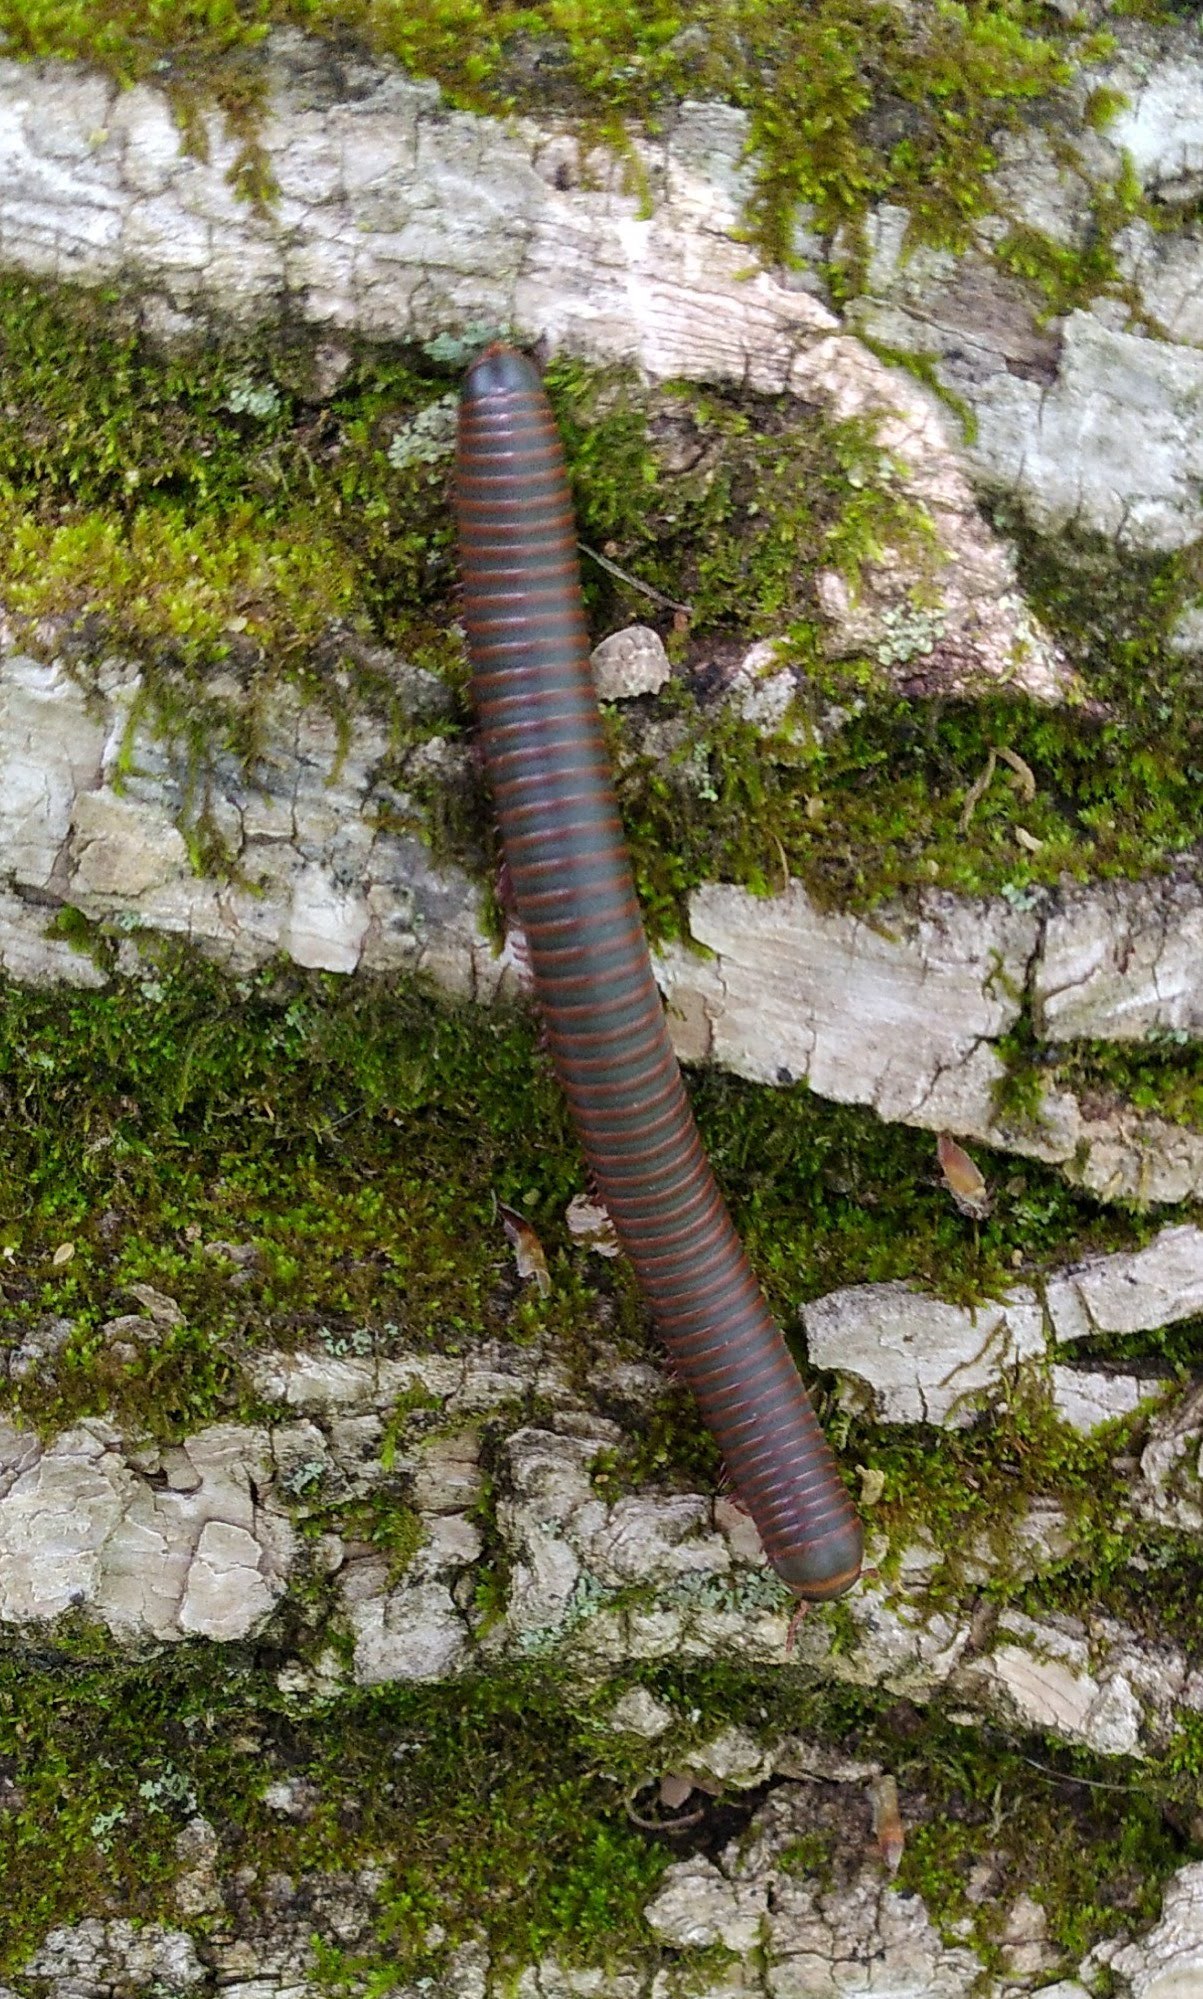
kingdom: Animalia
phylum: Arthropoda
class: Diplopoda
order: Spirobolida
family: Spirobolidae
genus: Narceus
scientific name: Narceus
